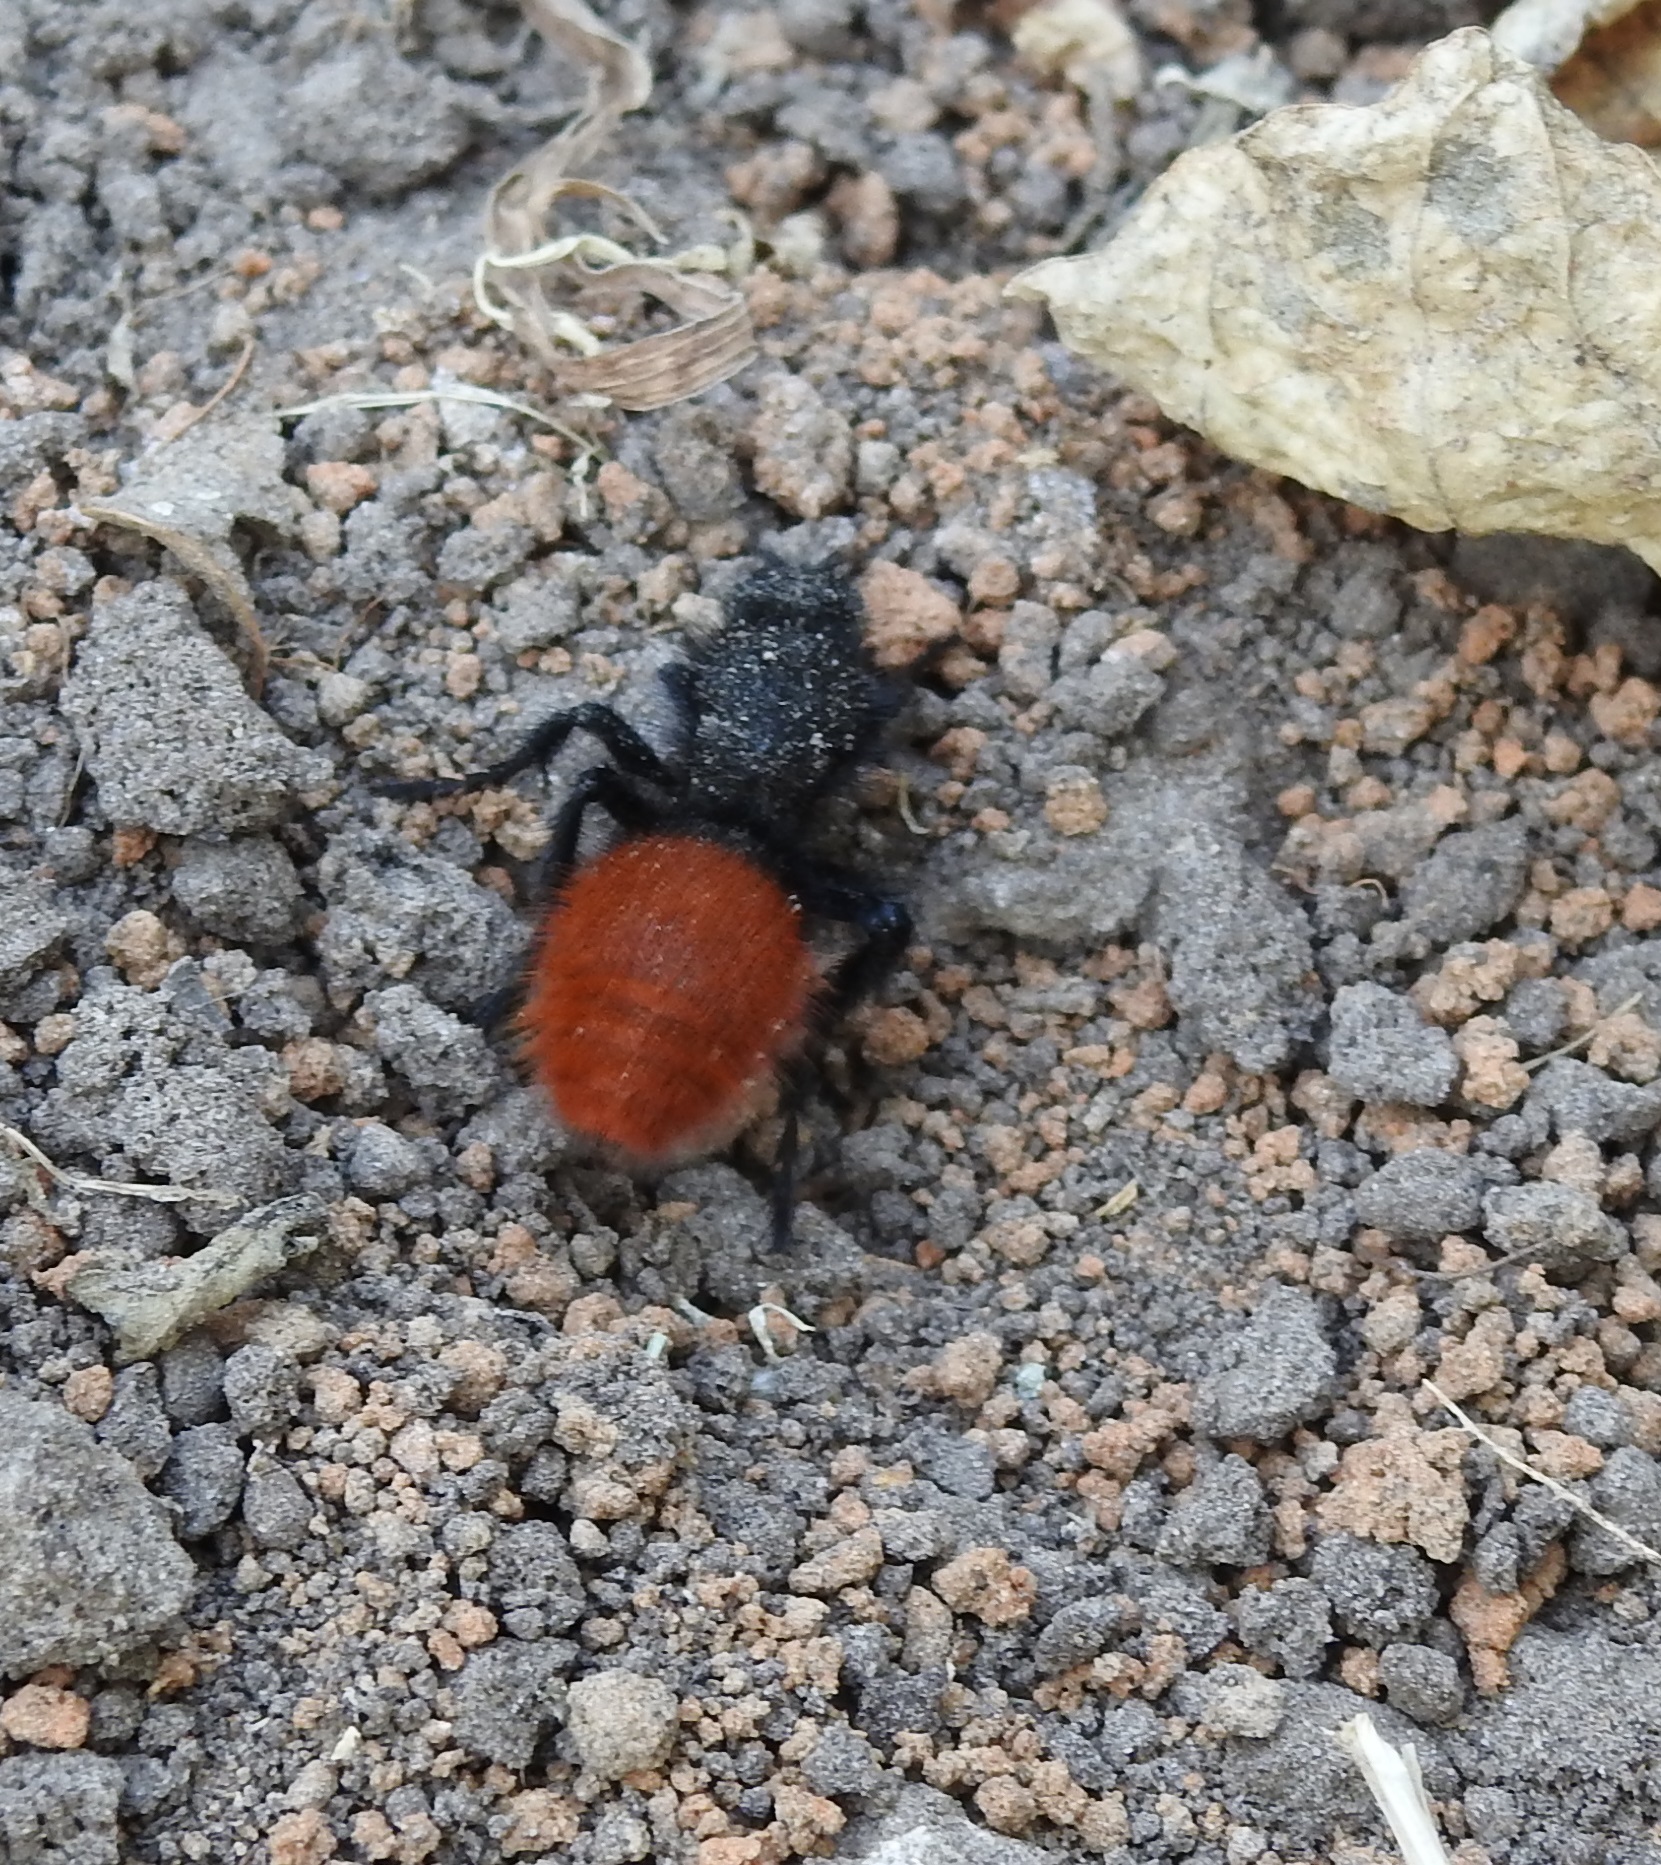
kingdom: Animalia
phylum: Arthropoda
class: Insecta
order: Hymenoptera
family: Mutillidae
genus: Dasymutilla
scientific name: Dasymutilla
